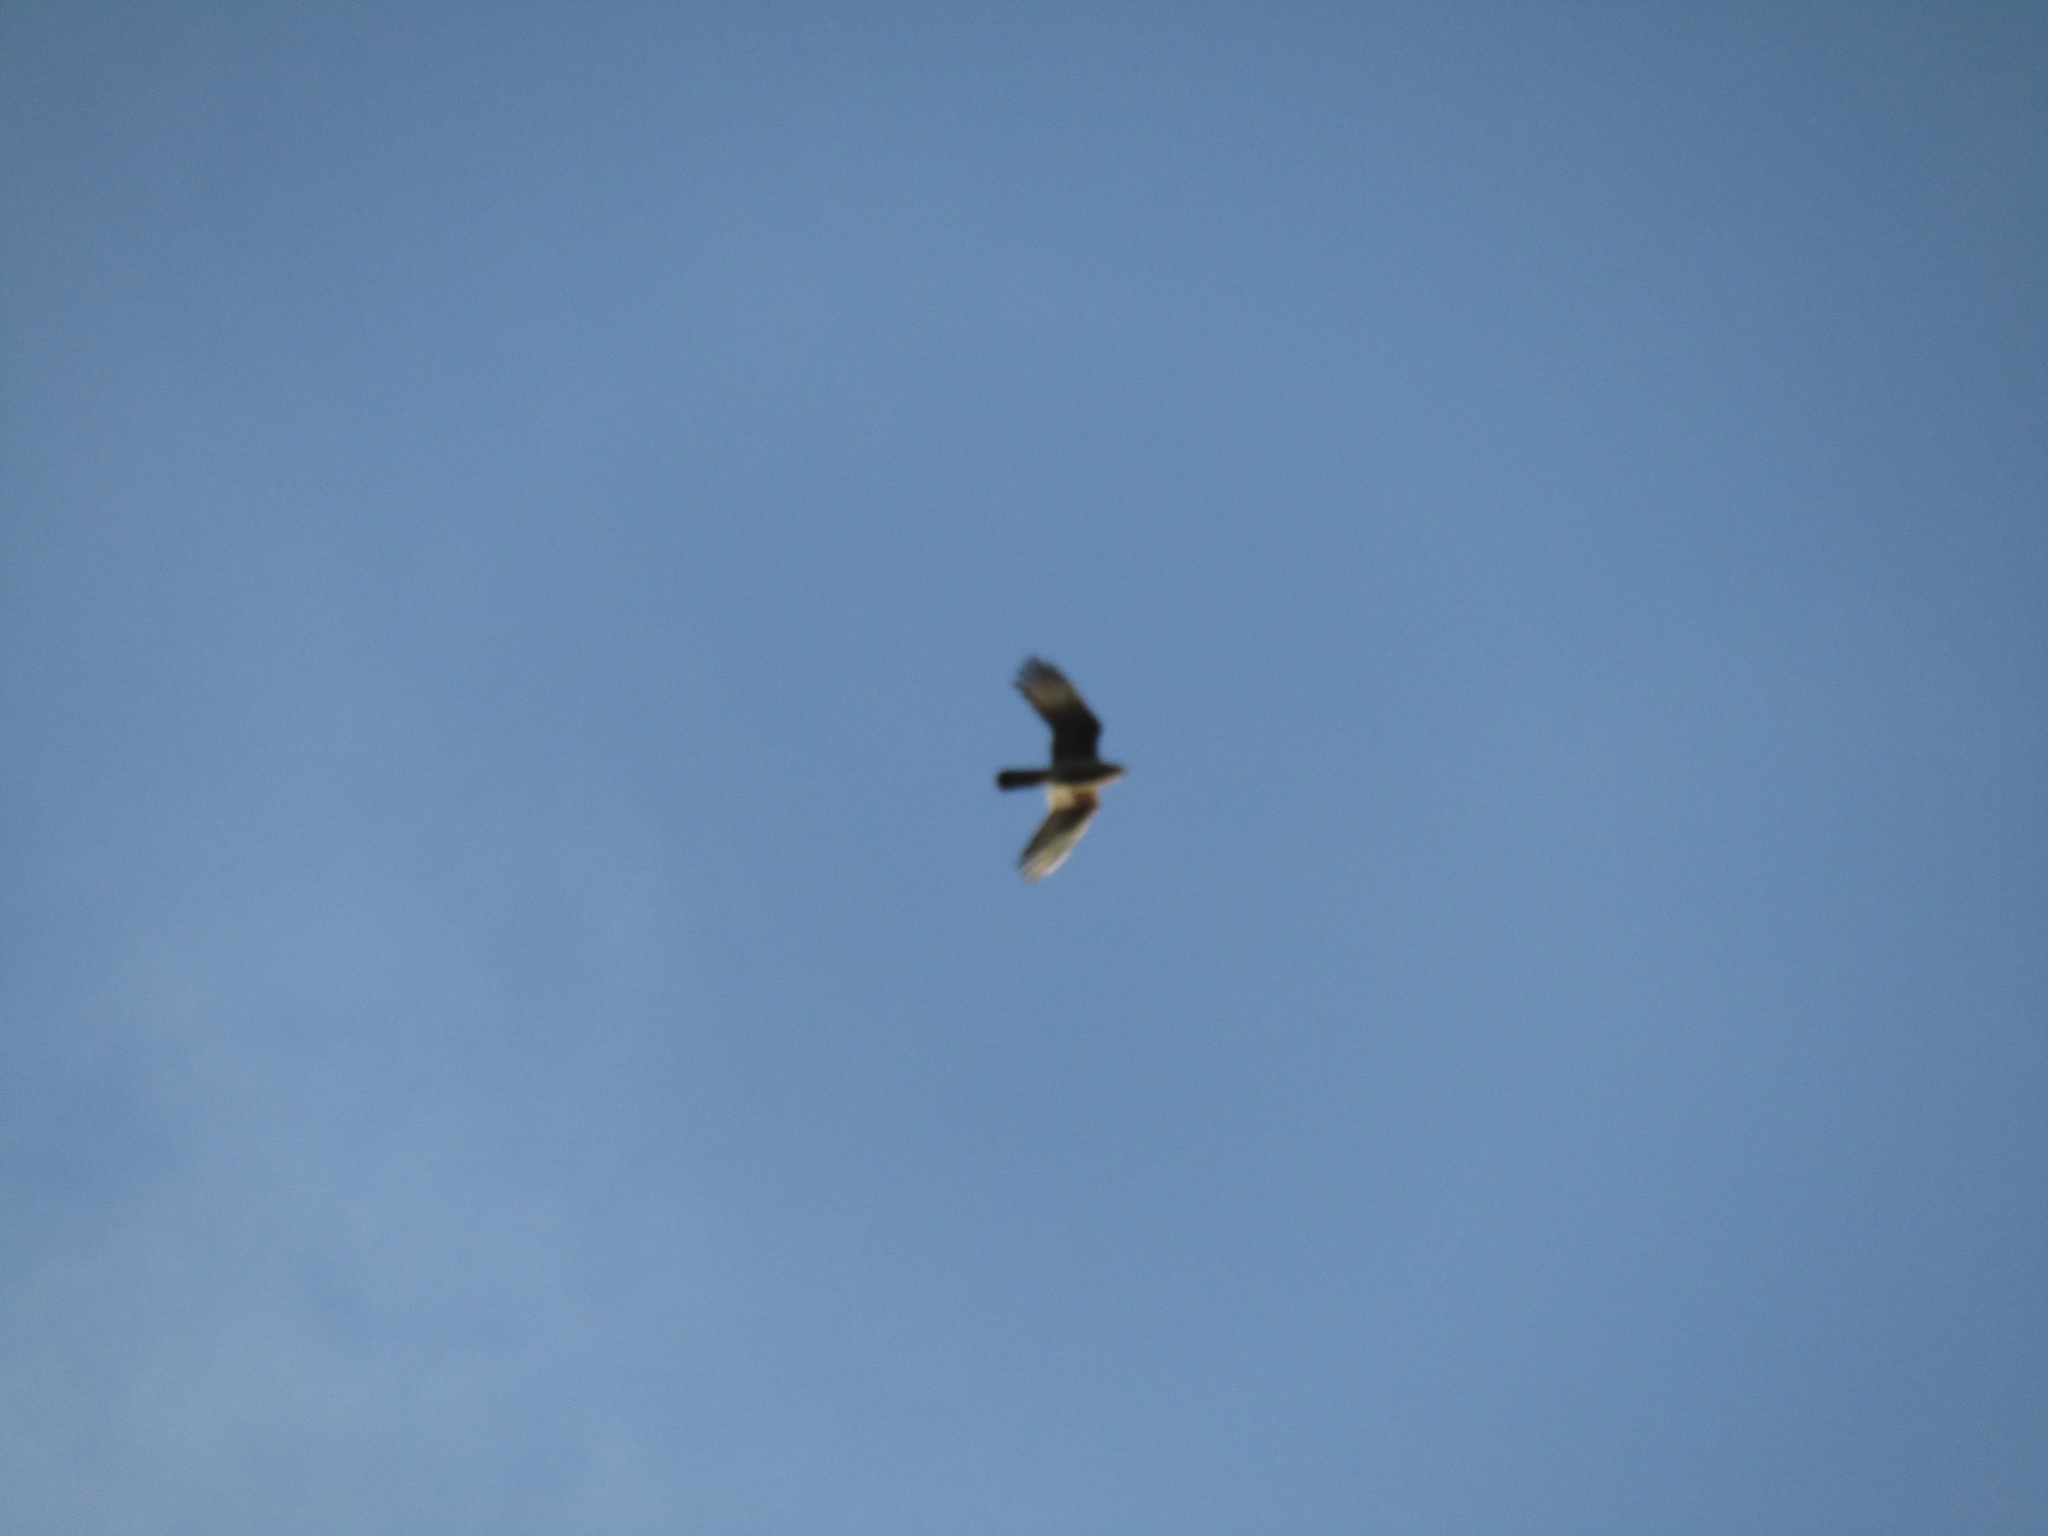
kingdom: Animalia
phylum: Chordata
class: Aves
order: Falconiformes
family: Falconidae
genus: Daptrius
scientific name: Daptrius
